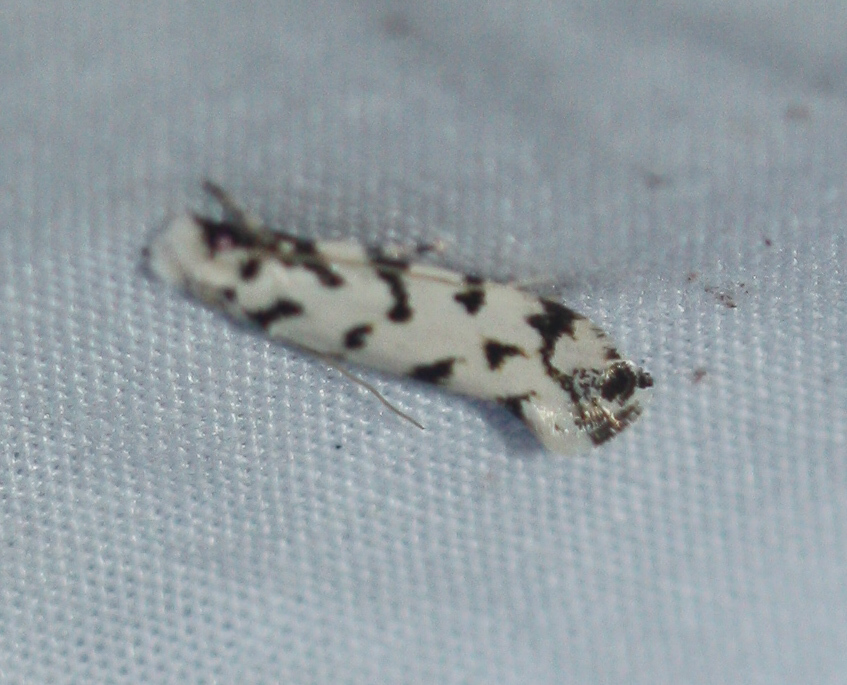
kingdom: Animalia
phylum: Arthropoda
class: Insecta
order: Lepidoptera
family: Tineidae
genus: Erechthias
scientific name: Erechthias simulans
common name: Fungus moth
